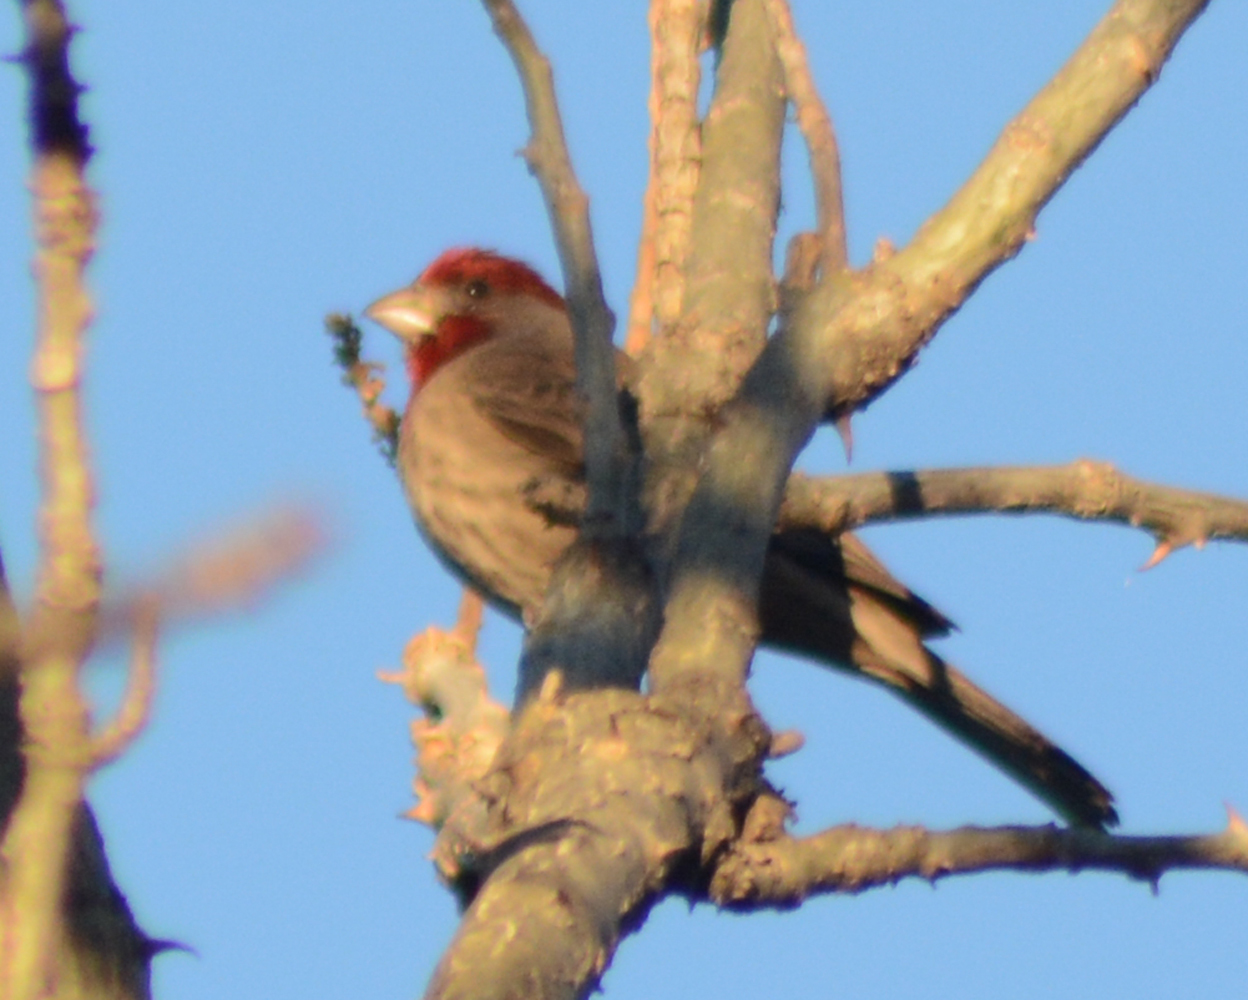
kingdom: Animalia
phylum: Chordata
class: Aves
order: Passeriformes
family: Fringillidae
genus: Haemorhous
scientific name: Haemorhous mexicanus
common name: House finch
